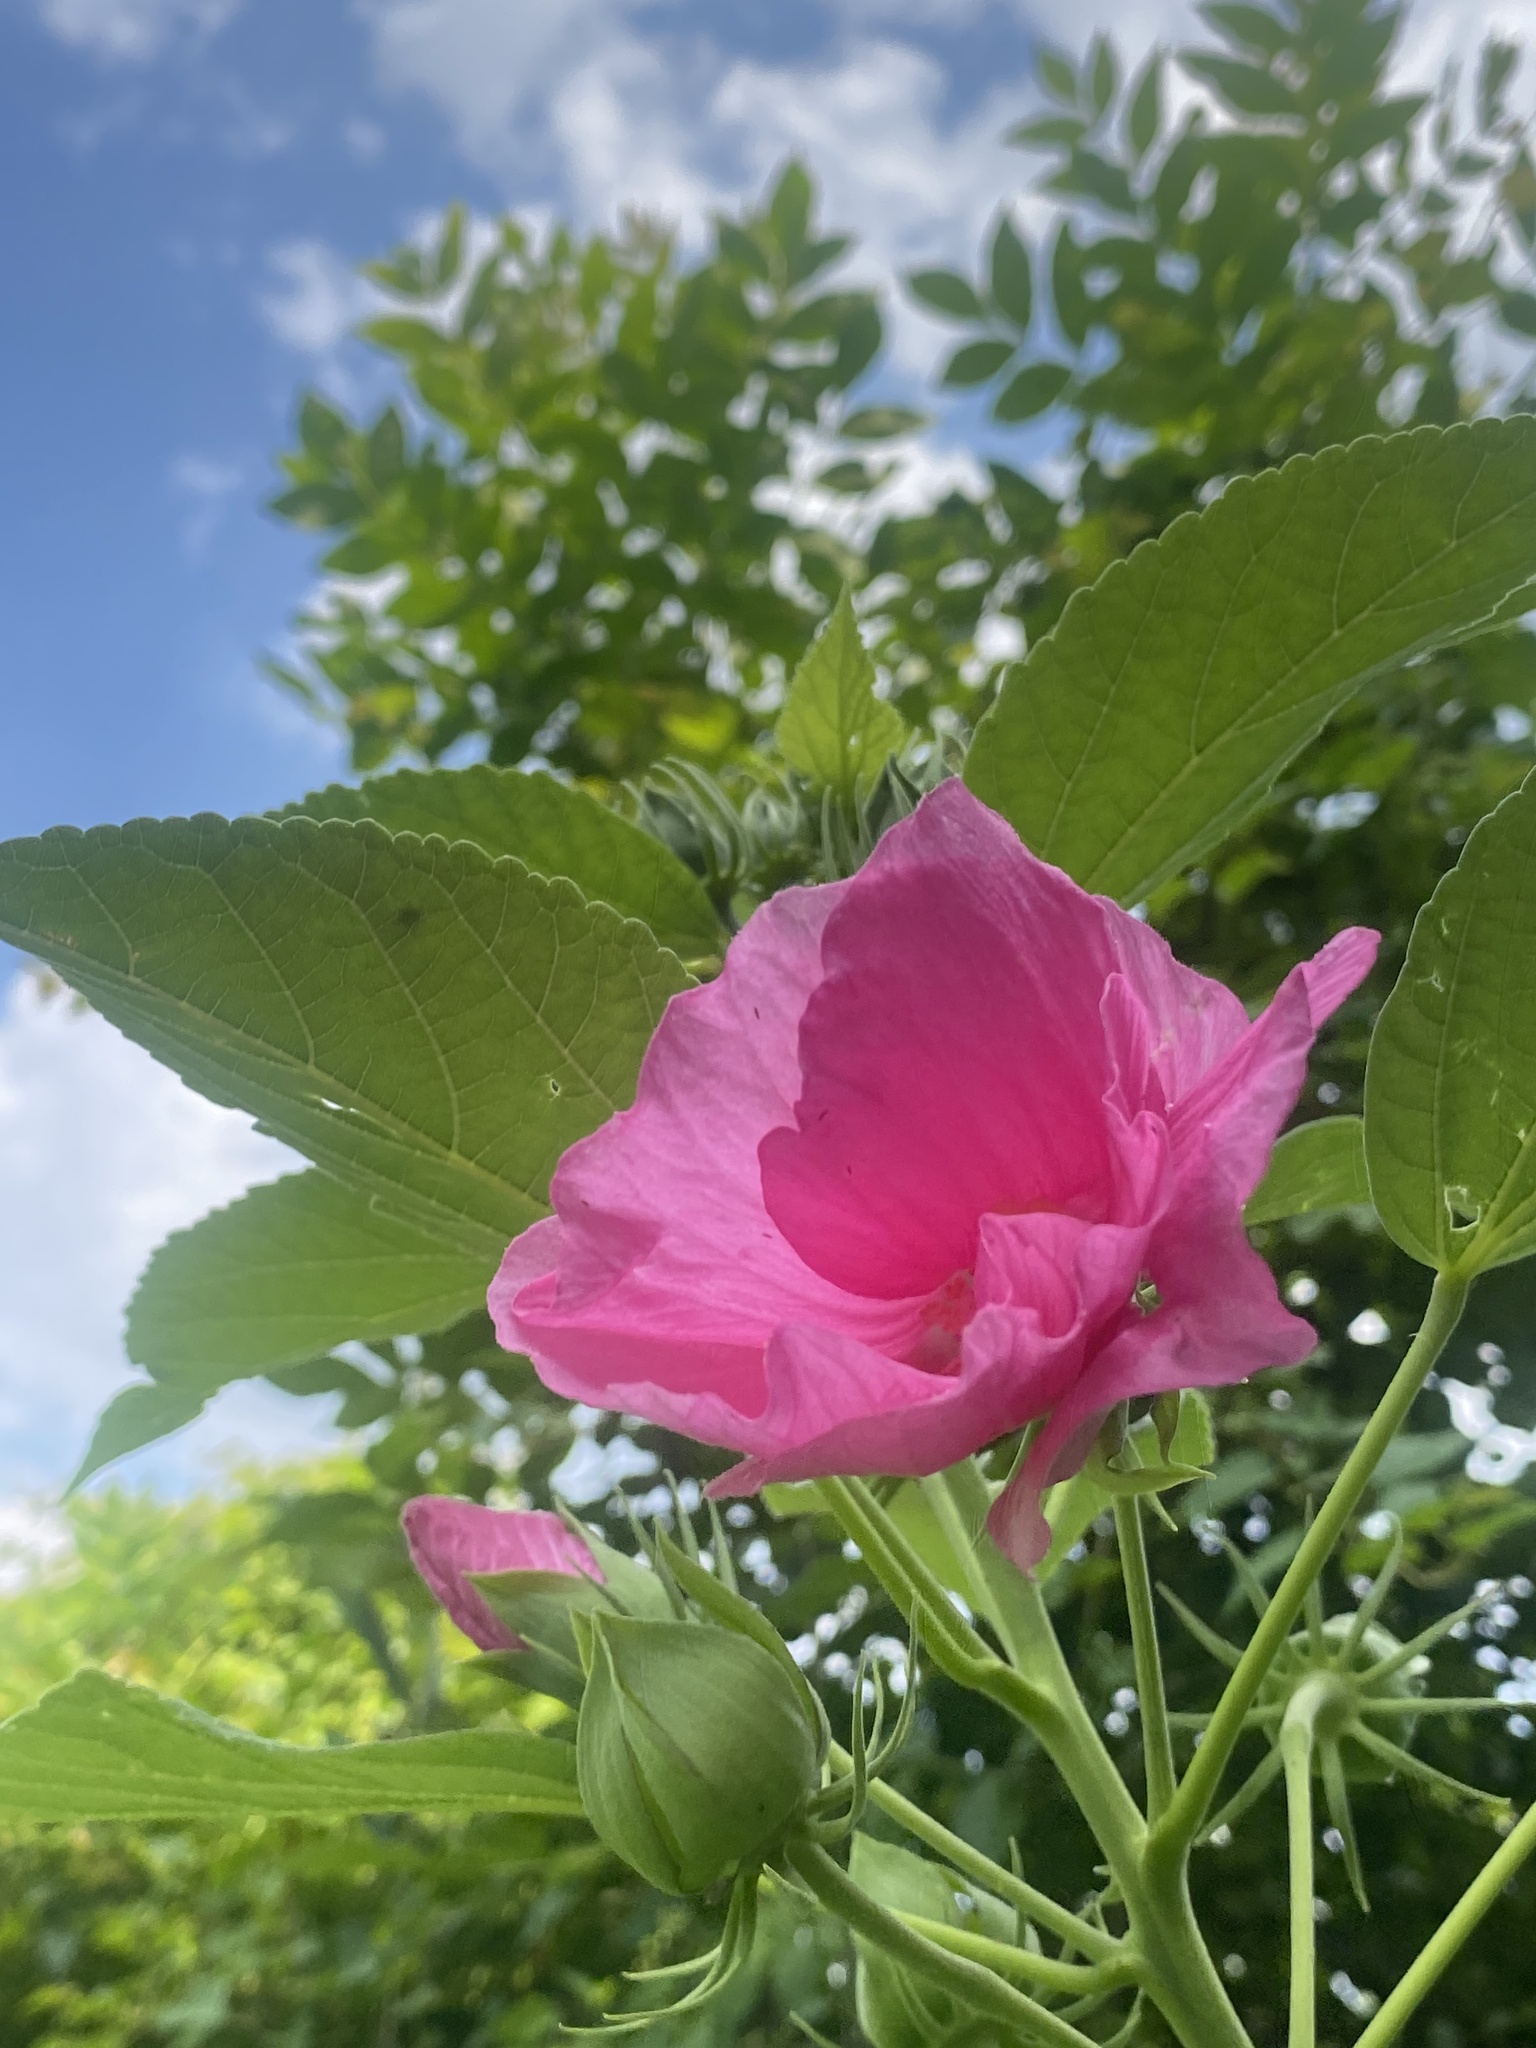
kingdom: Plantae
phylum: Tracheophyta
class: Magnoliopsida
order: Malvales
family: Malvaceae
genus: Hibiscus
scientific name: Hibiscus moscheutos
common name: Common rose-mallow
